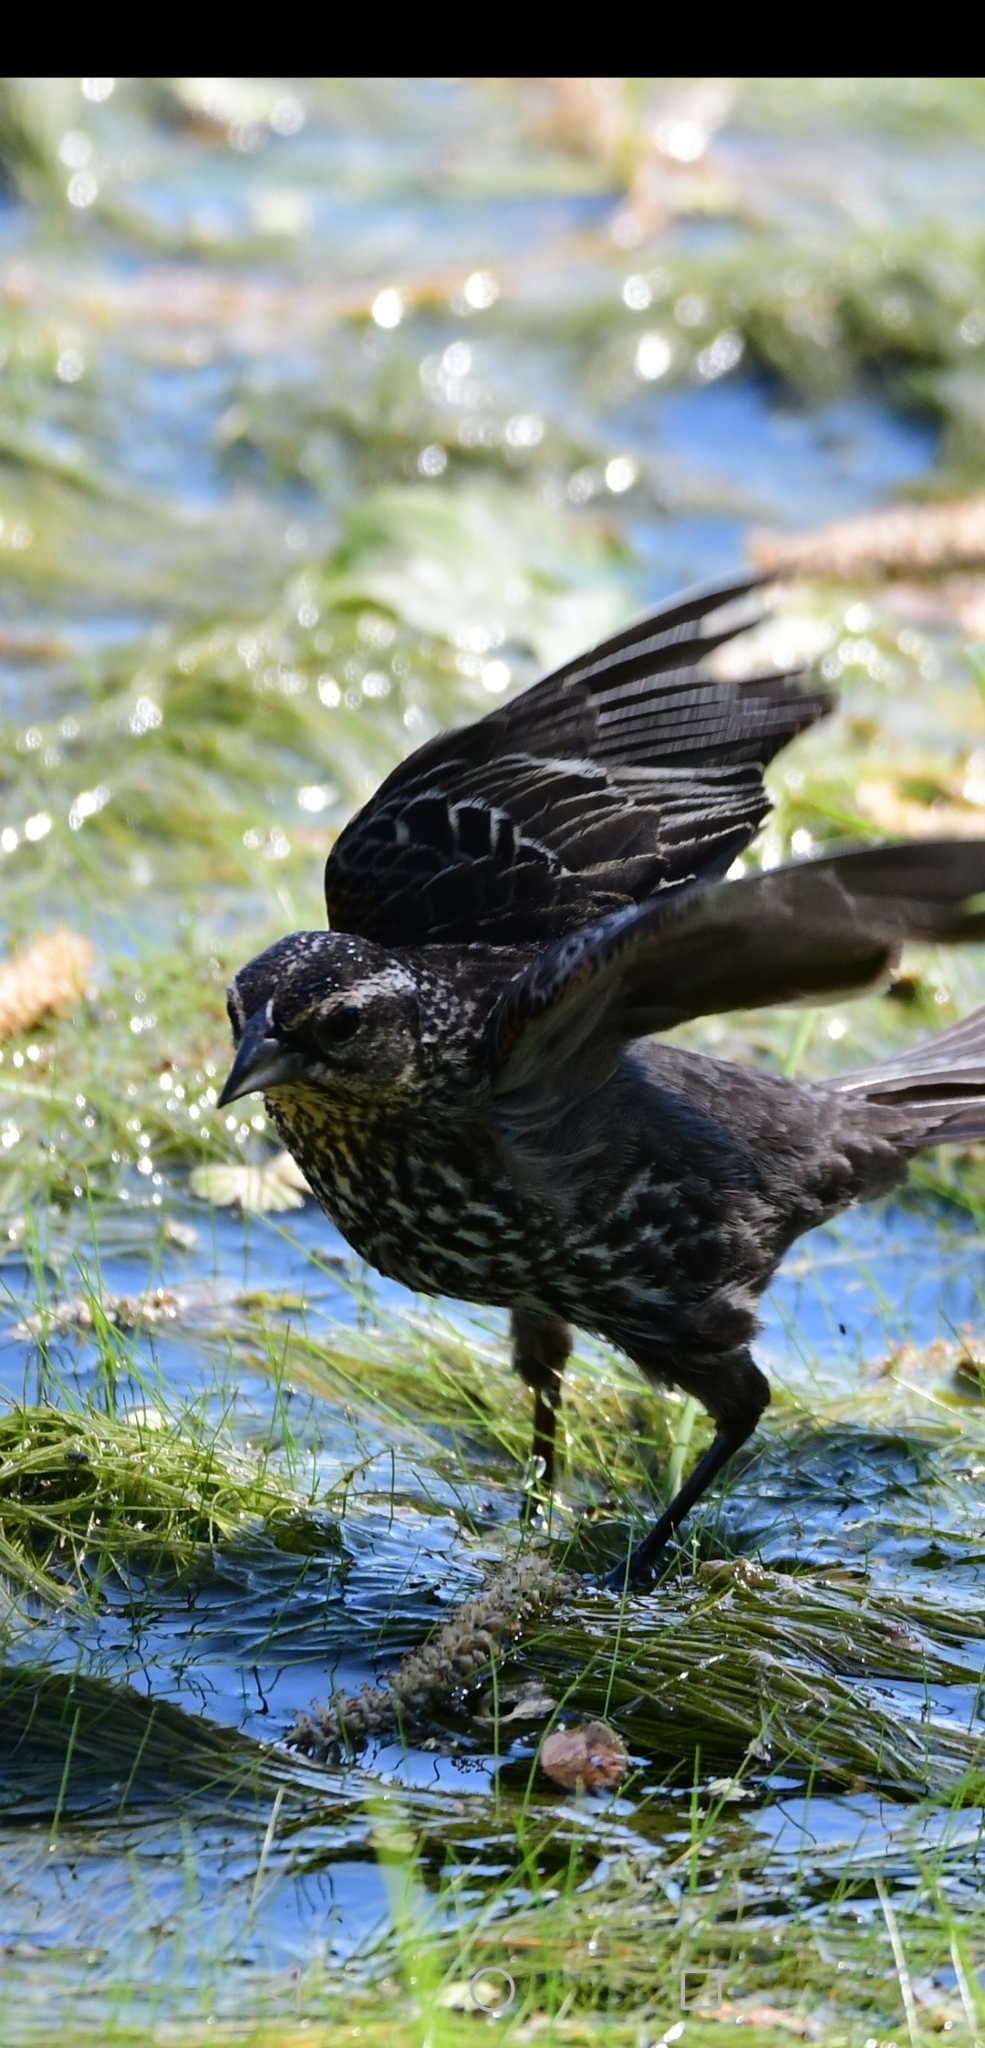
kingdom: Animalia
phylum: Chordata
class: Aves
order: Passeriformes
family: Icteridae
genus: Agelaius
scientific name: Agelaius phoeniceus
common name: Red-winged blackbird
